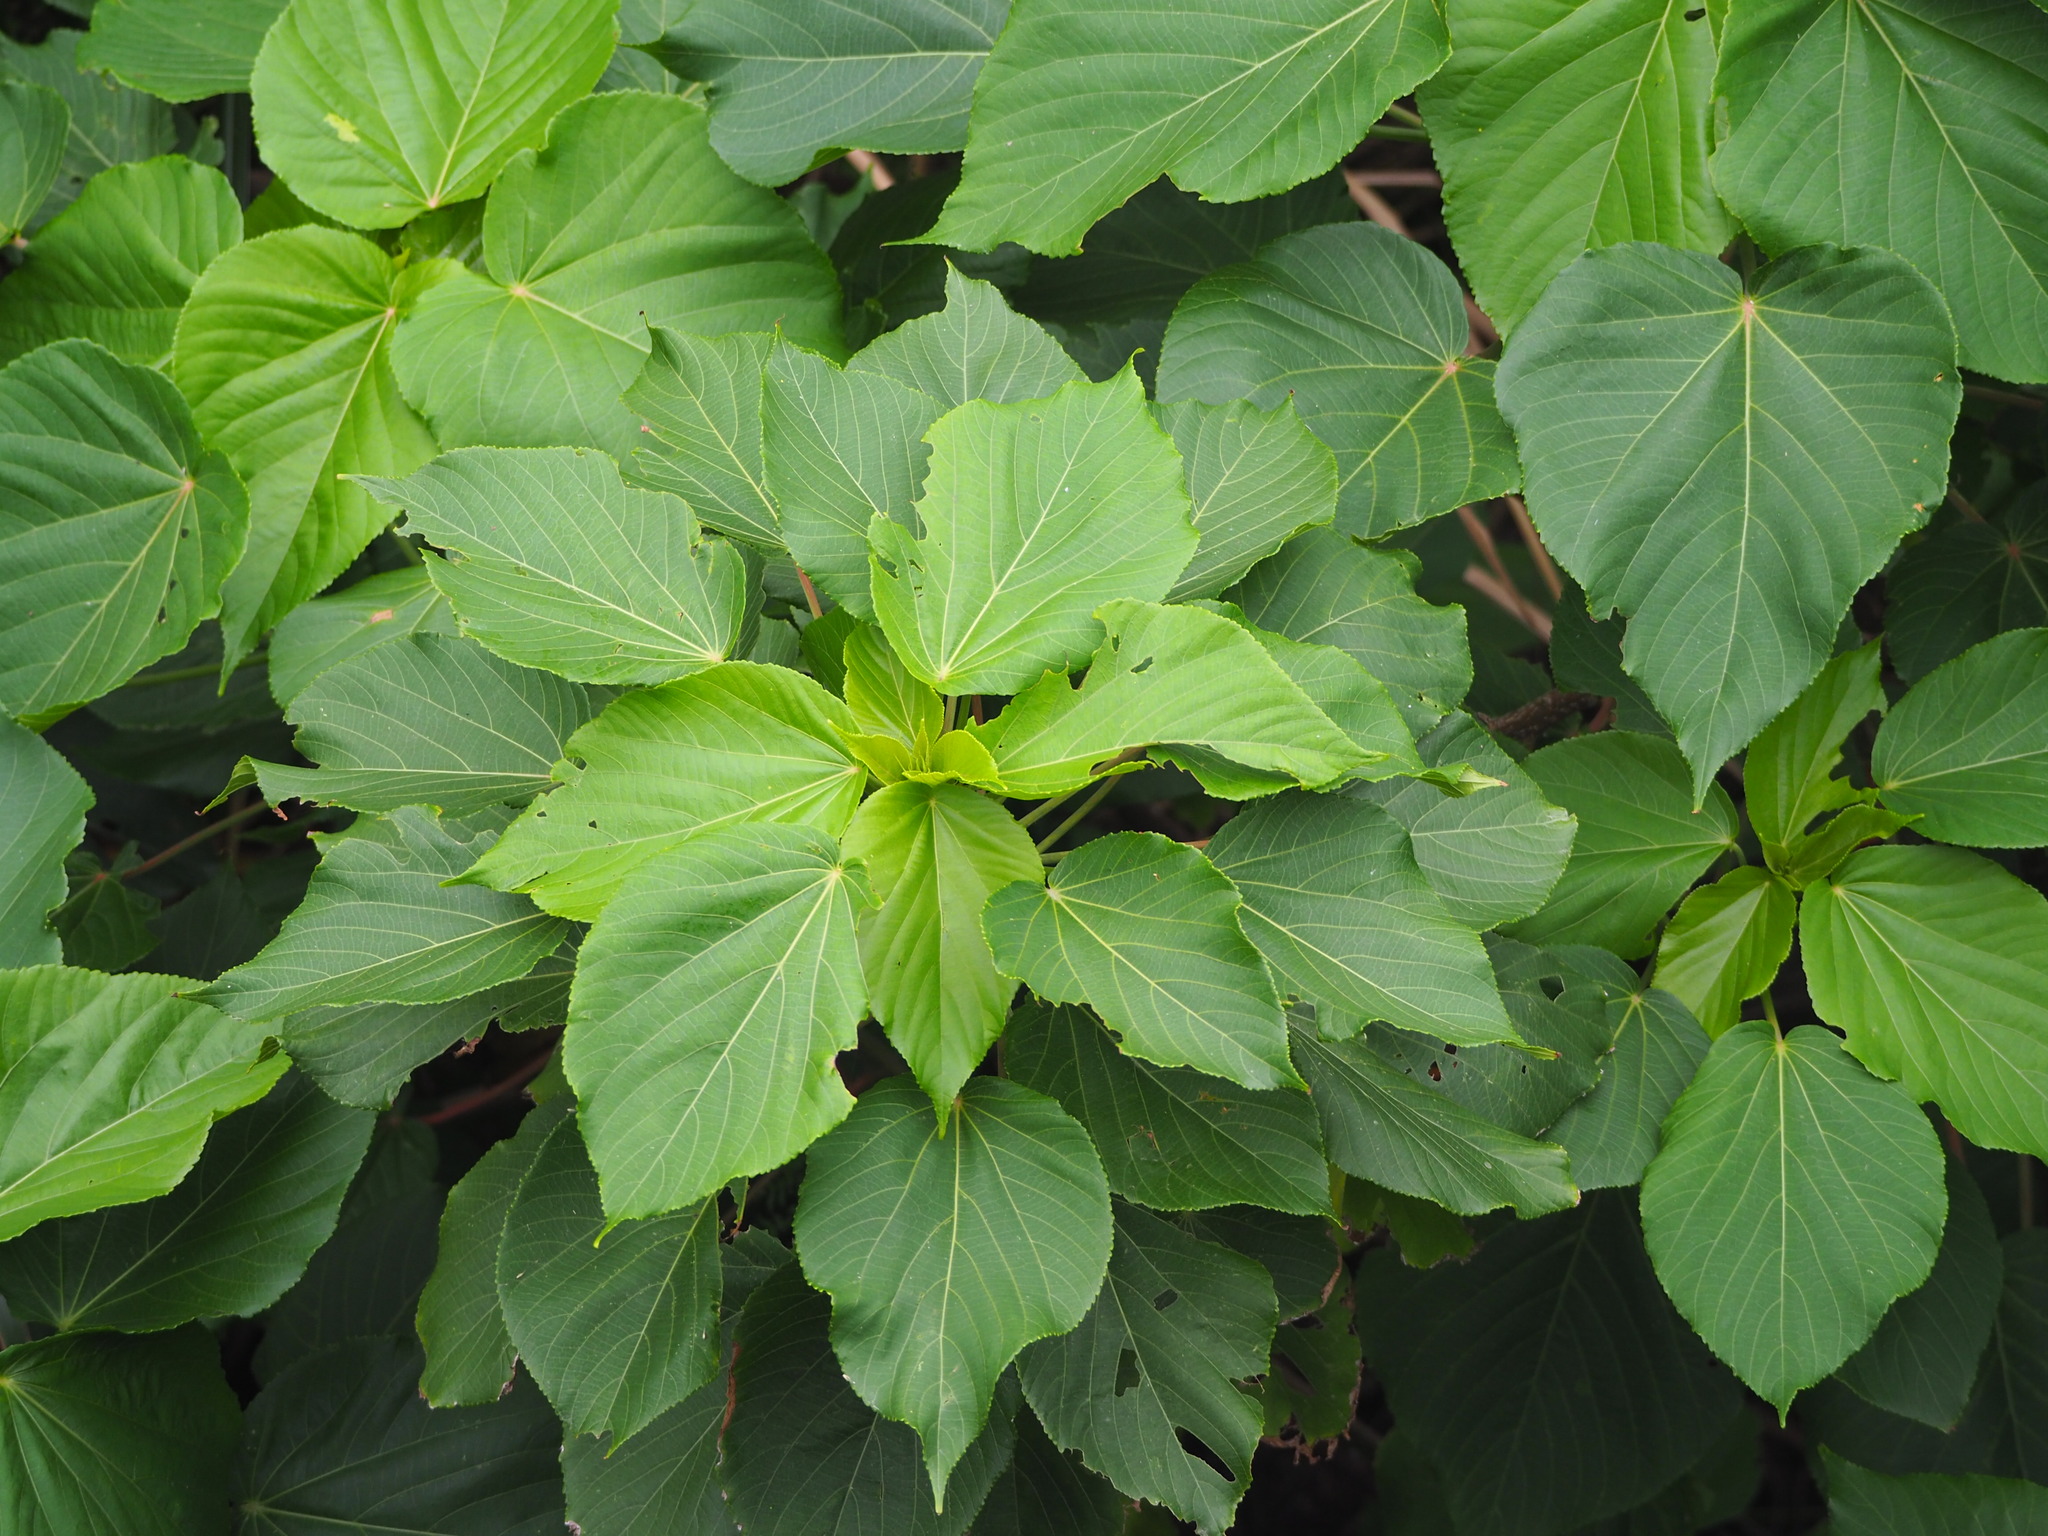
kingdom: Plantae
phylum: Tracheophyta
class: Magnoliopsida
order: Malpighiales
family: Euphorbiaceae
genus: Acalypha
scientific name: Acalypha grandibracteata
